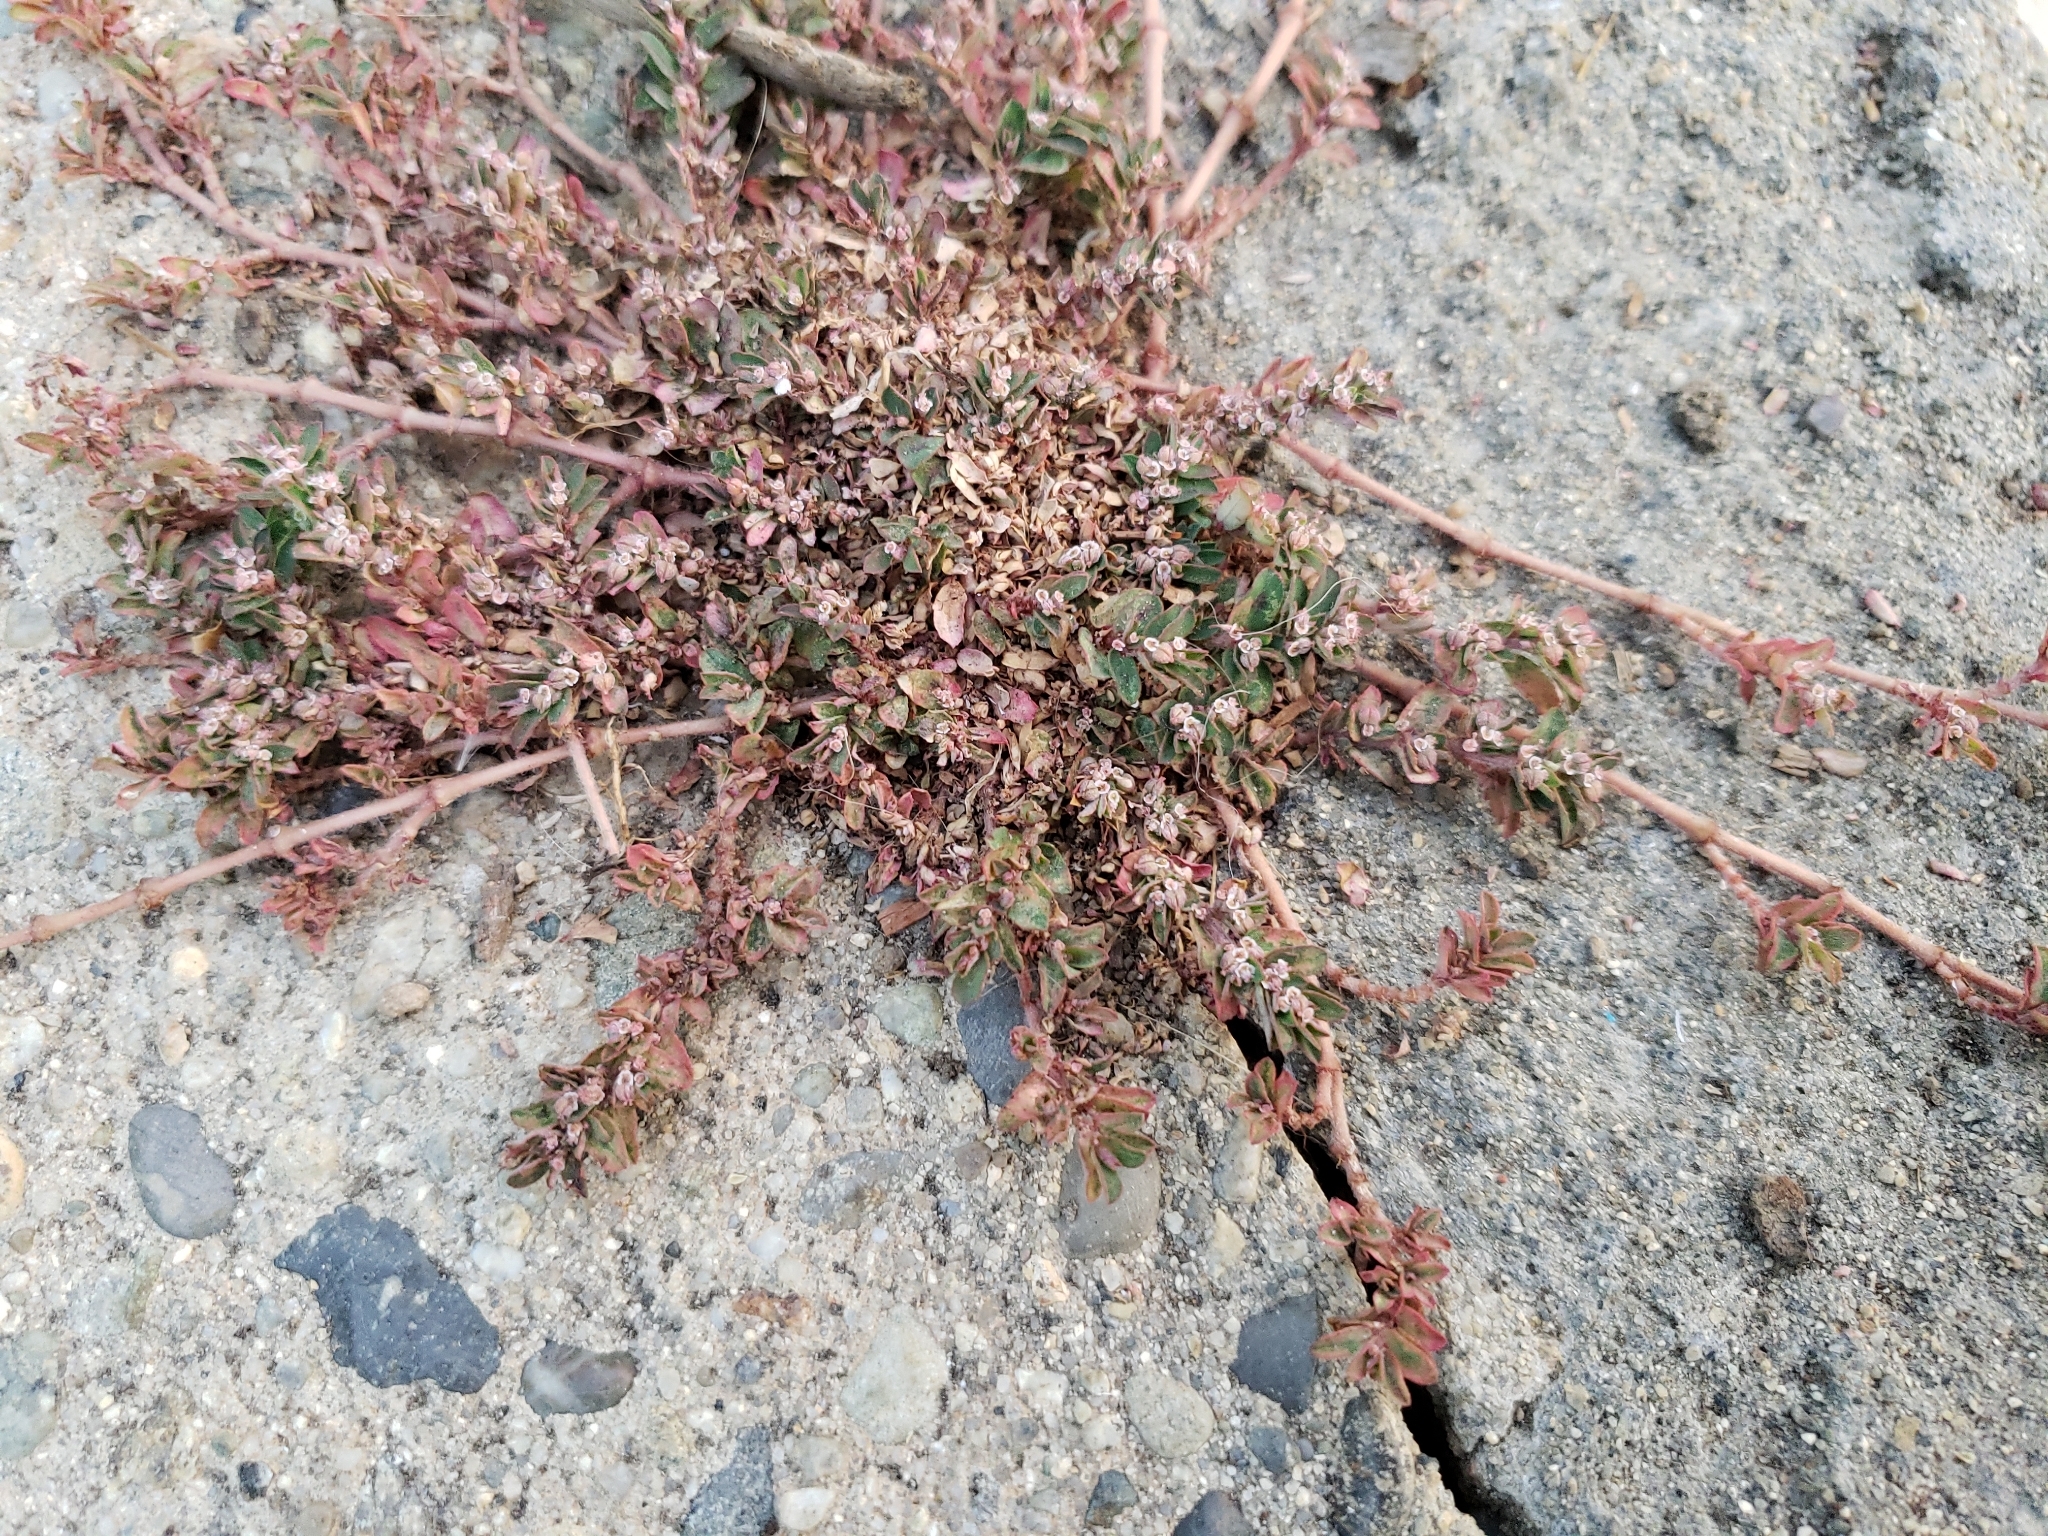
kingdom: Plantae
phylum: Tracheophyta
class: Magnoliopsida
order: Malpighiales
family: Euphorbiaceae
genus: Euphorbia
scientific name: Euphorbia maculata
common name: Spotted spurge
